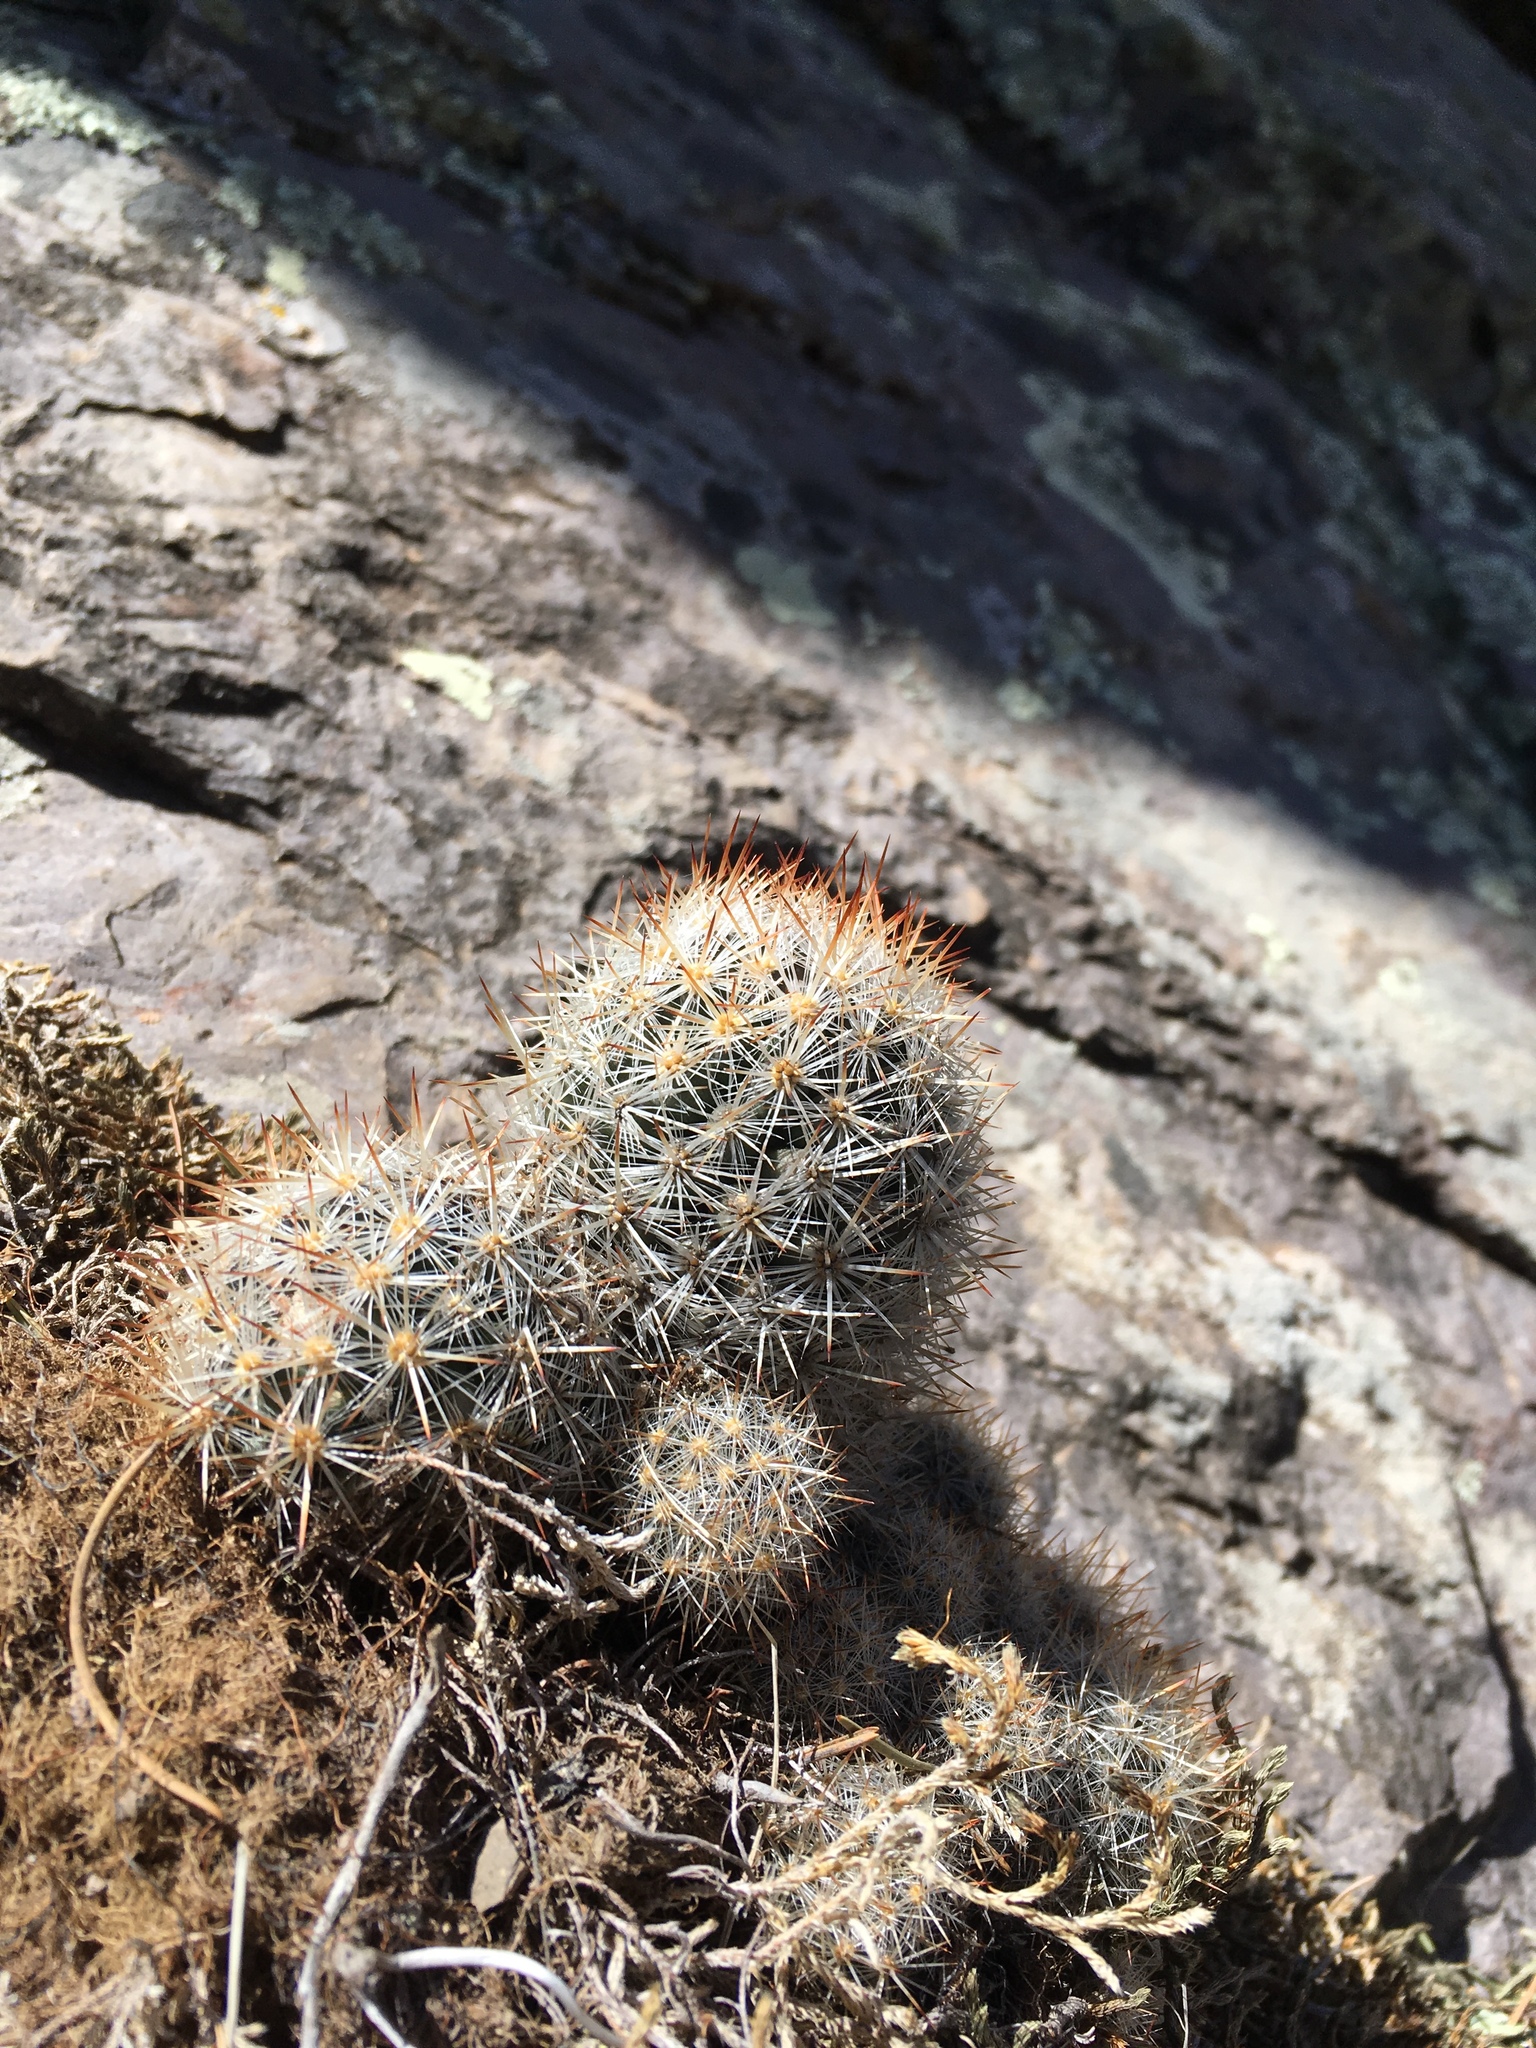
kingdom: Plantae
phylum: Tracheophyta
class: Magnoliopsida
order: Caryophyllales
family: Cactaceae
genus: Pelecyphora
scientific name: Pelecyphora sneedii
